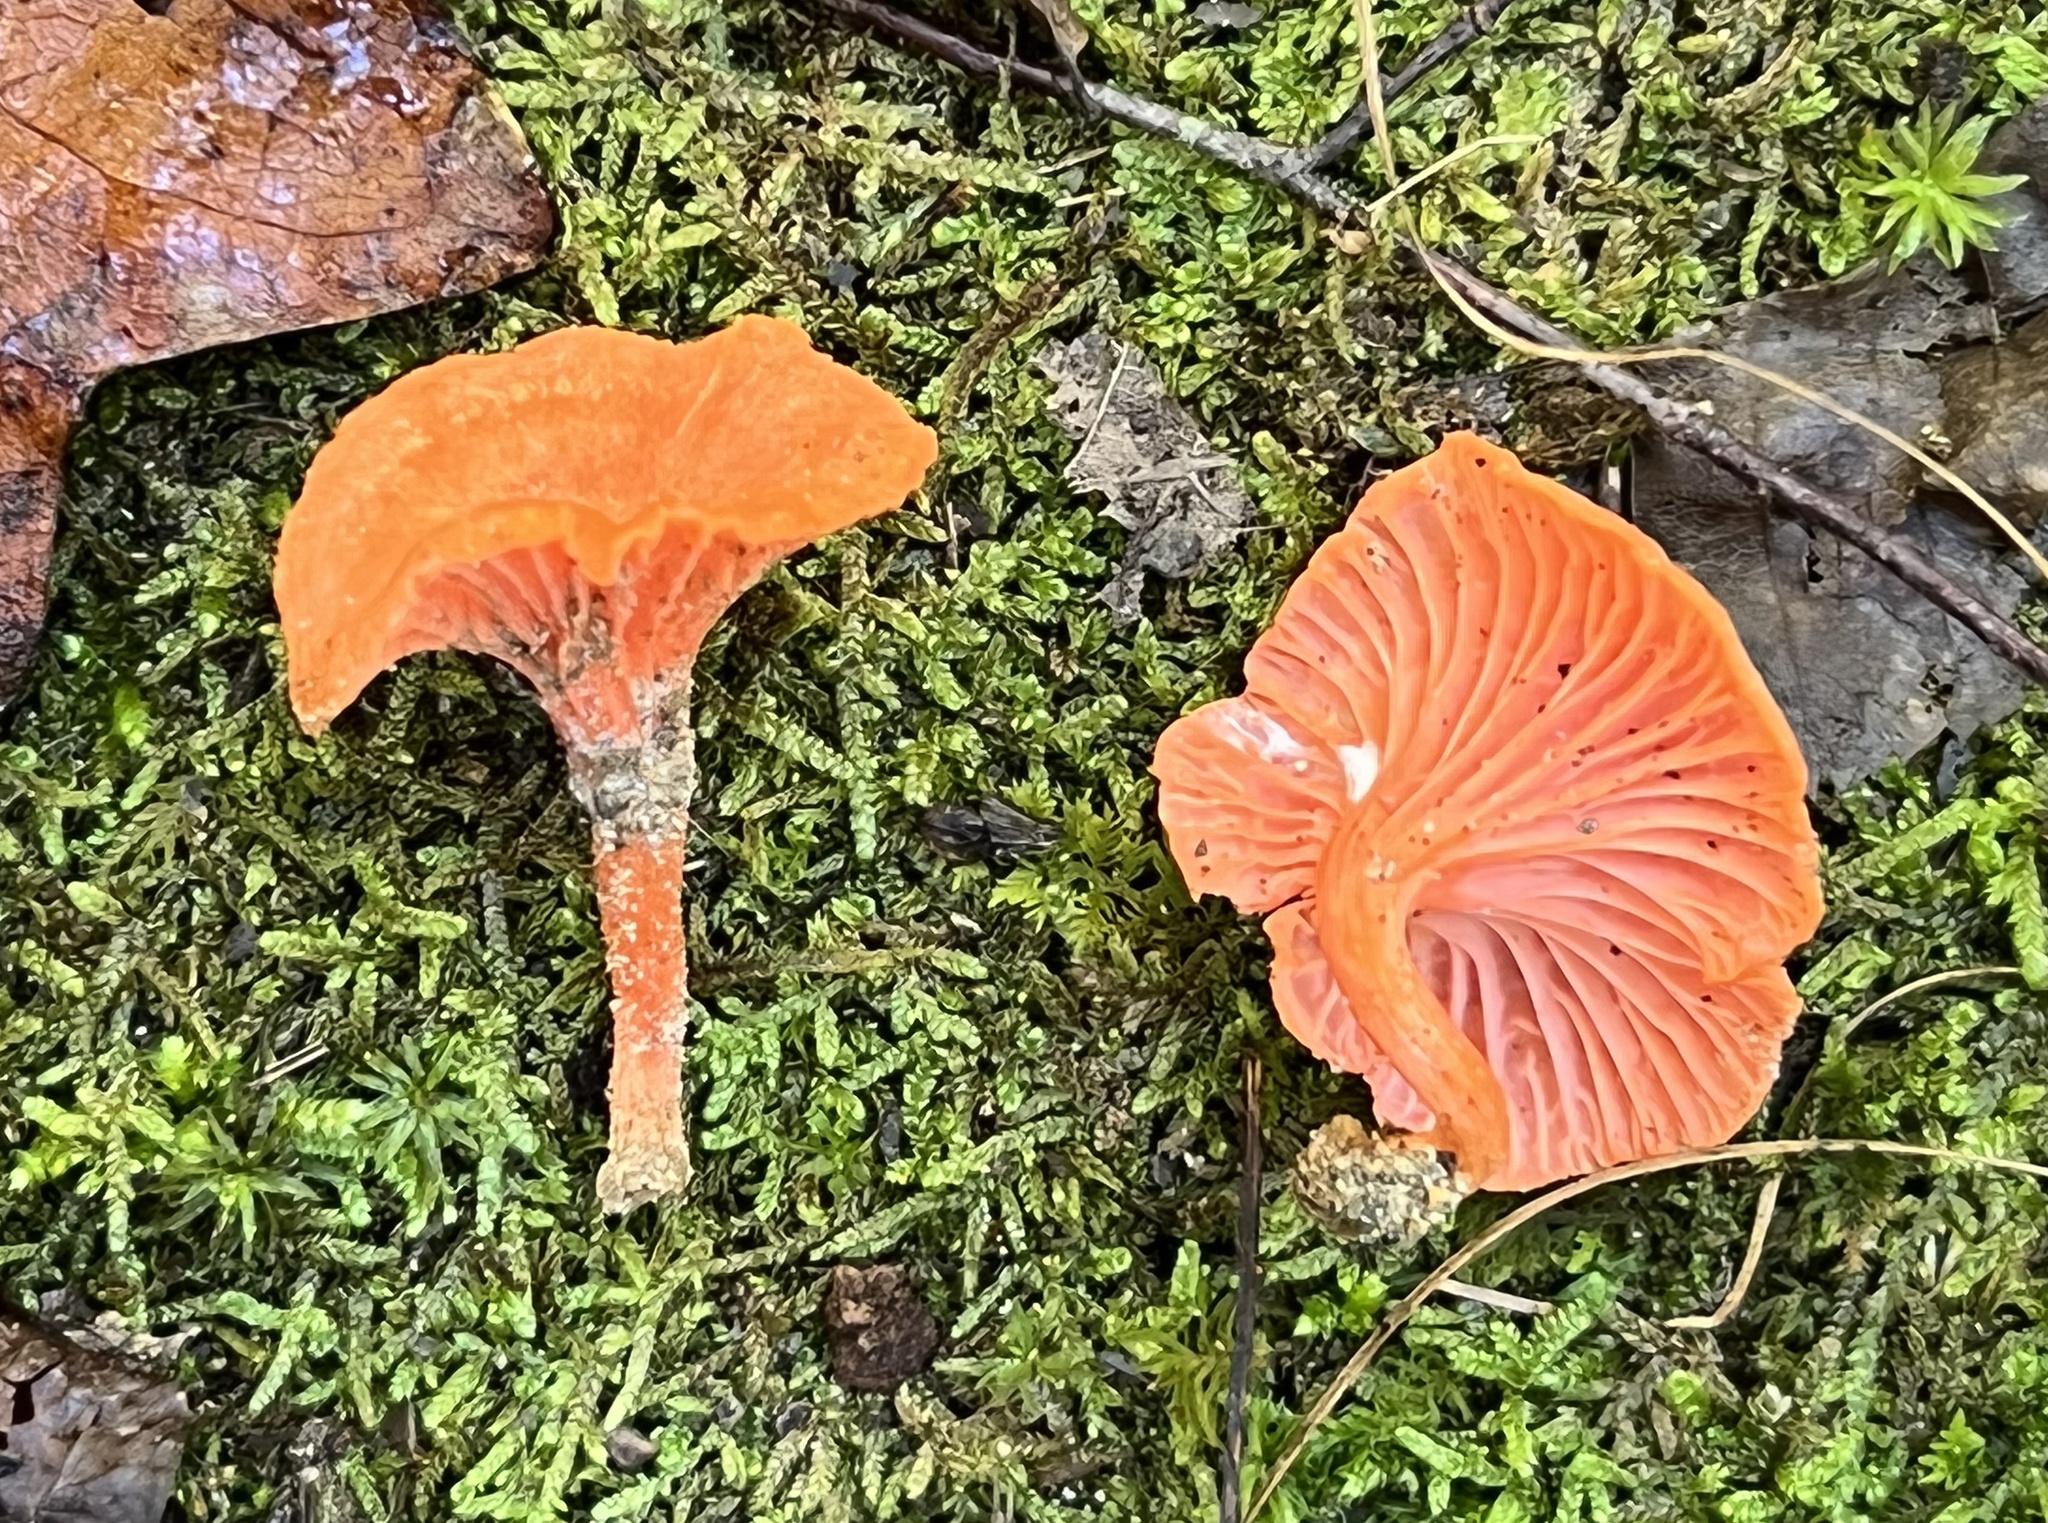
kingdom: Fungi
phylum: Basidiomycota
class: Agaricomycetes
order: Cantharellales
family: Hydnaceae
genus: Cantharellus
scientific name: Cantharellus cinnabarinus
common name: Cinnabar chanterelle
